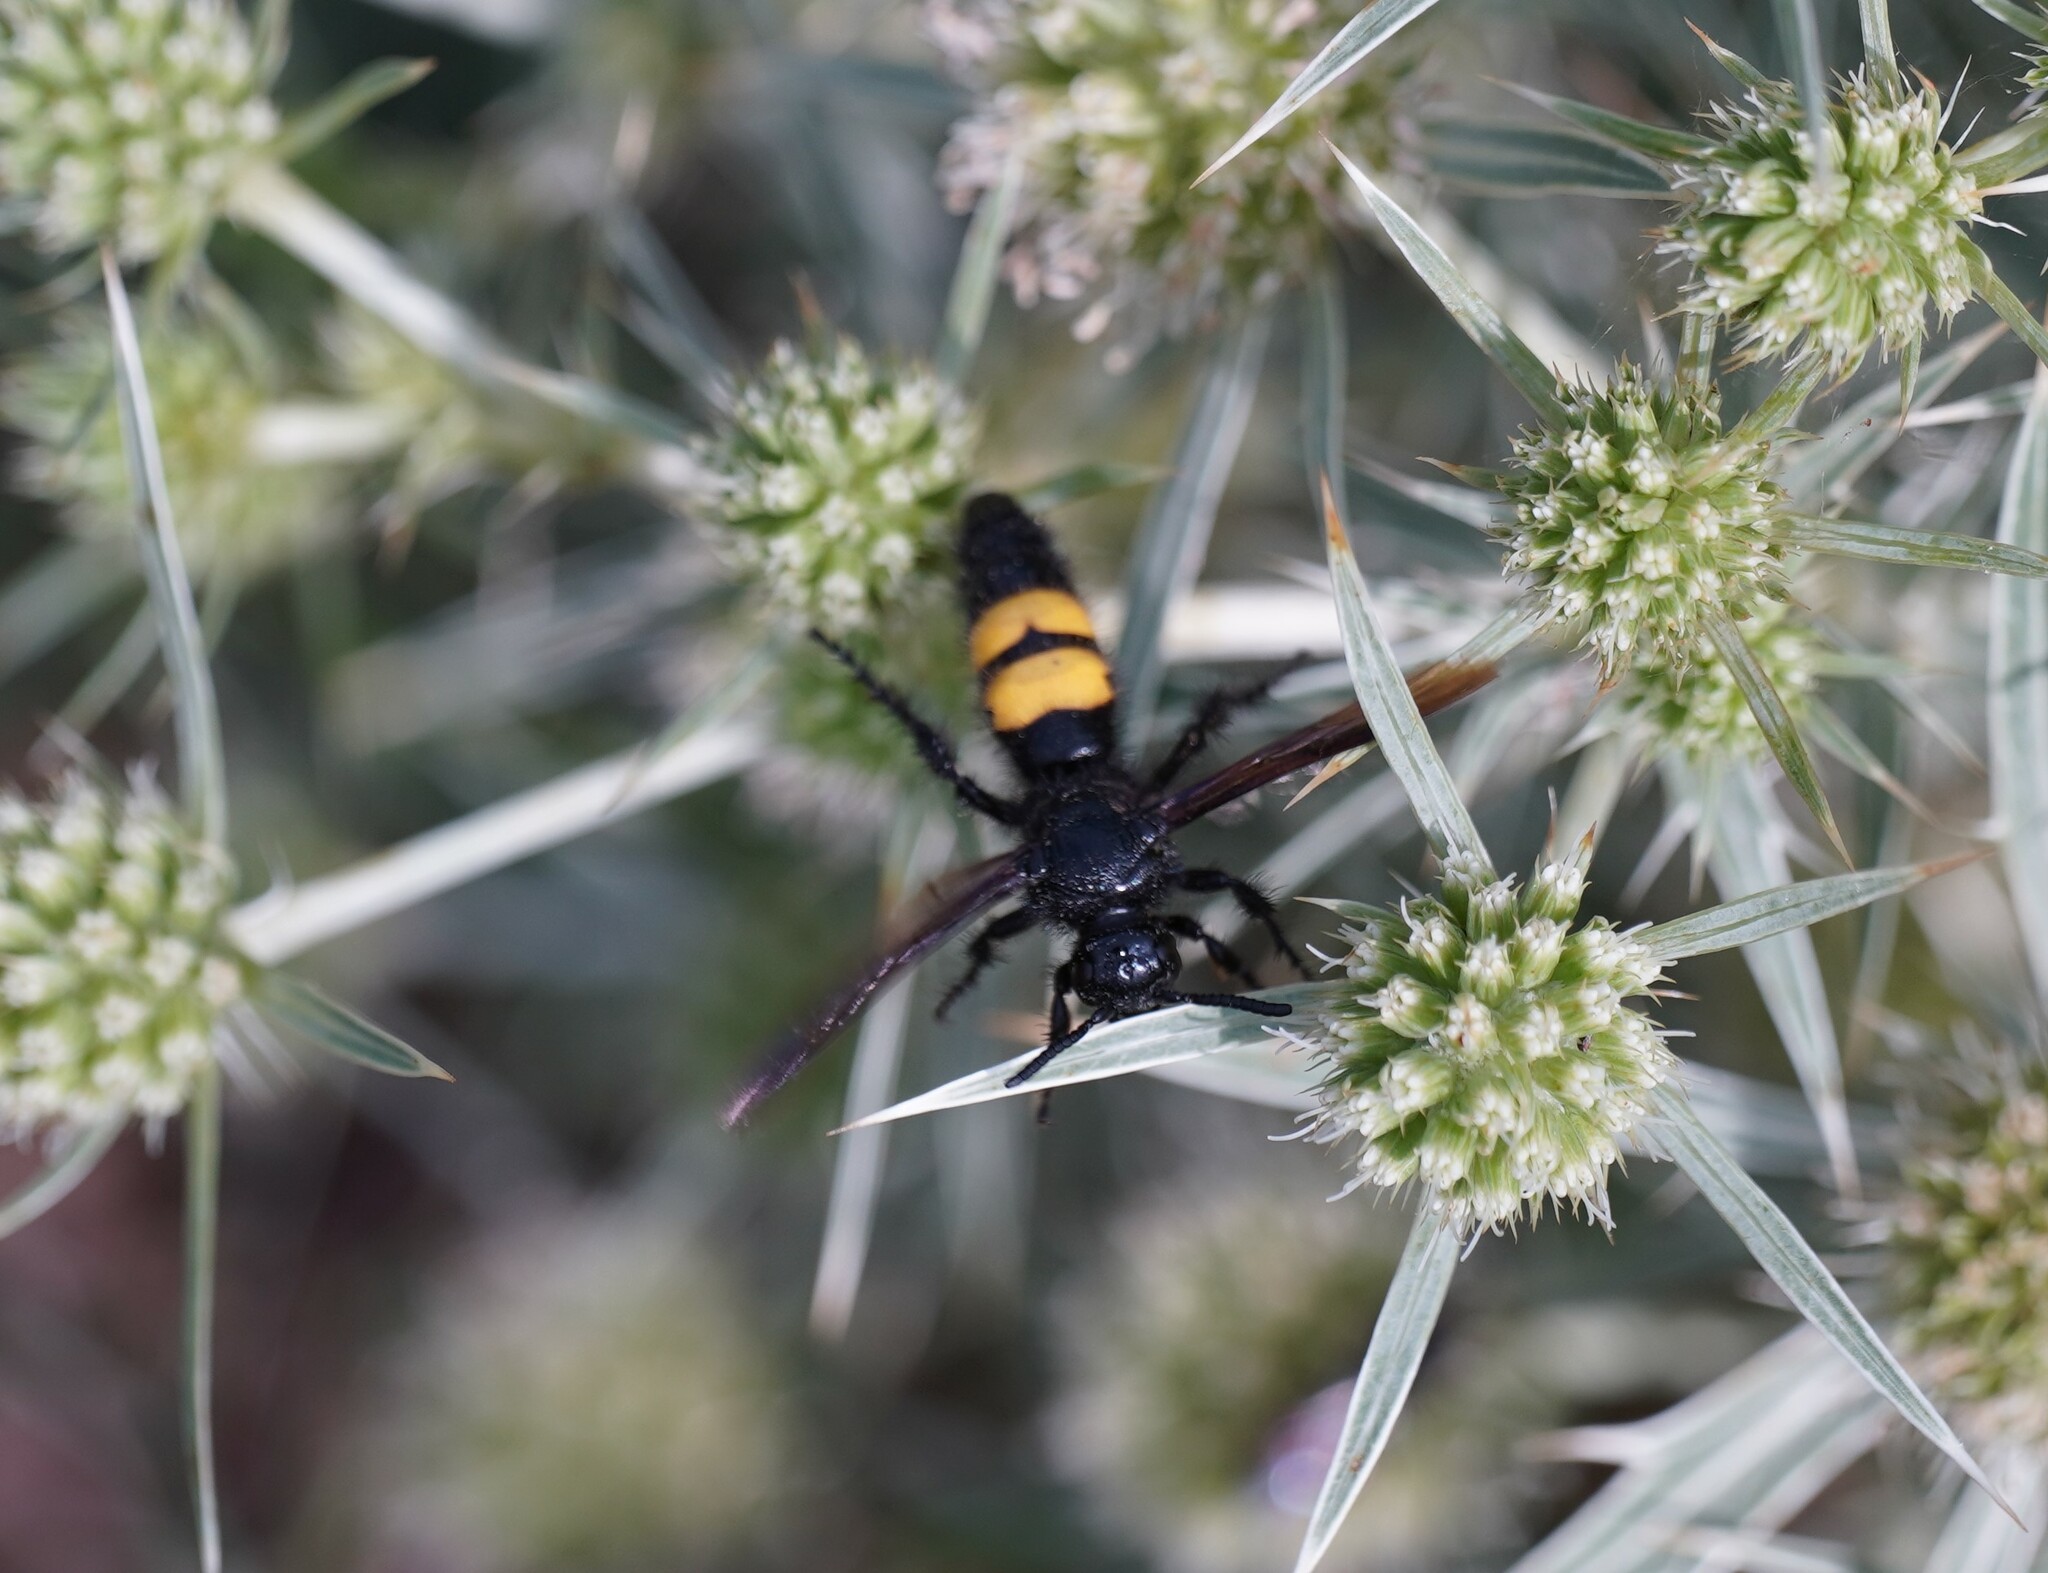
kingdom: Animalia
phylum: Arthropoda
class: Insecta
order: Hymenoptera
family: Scoliidae
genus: Scolia
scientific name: Scolia hirta
